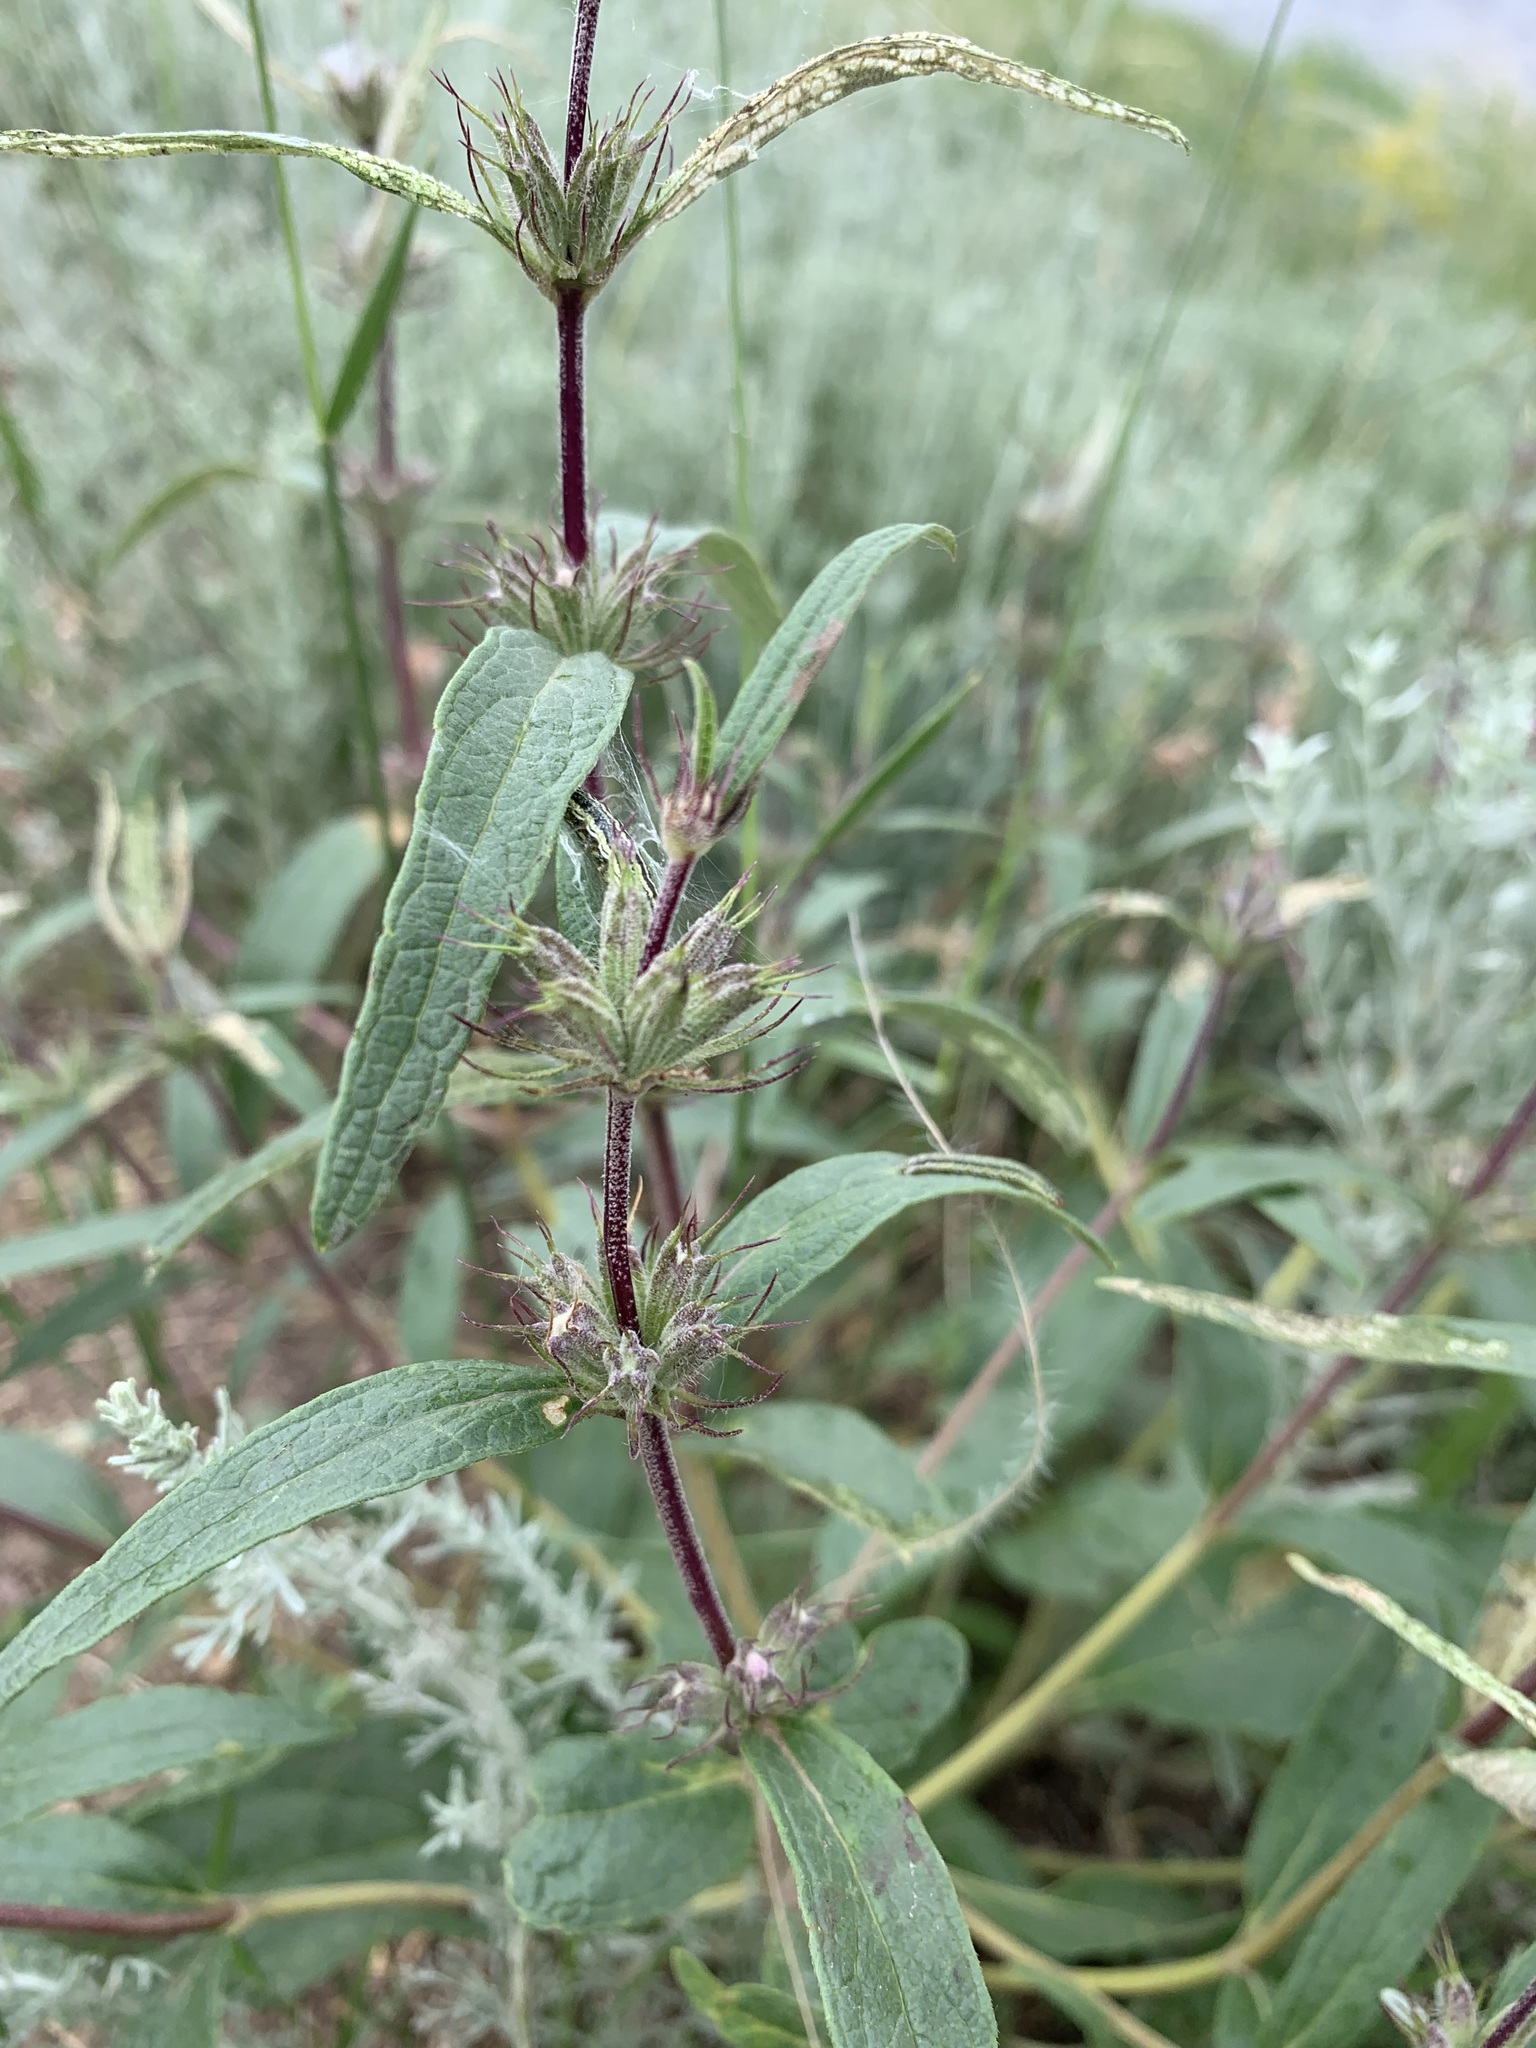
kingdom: Plantae
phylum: Tracheophyta
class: Magnoliopsida
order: Lamiales
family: Lamiaceae
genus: Phlomis
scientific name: Phlomis herba-venti
